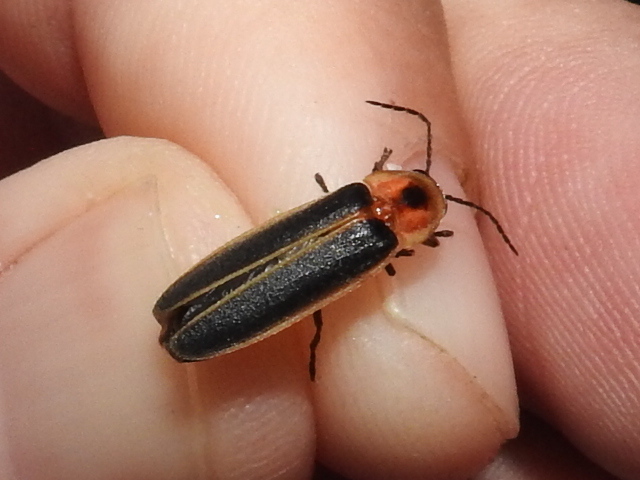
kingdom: Animalia
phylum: Arthropoda
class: Insecta
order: Coleoptera
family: Lampyridae
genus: Photinus
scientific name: Photinus pyralis
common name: Big dipper firefly
